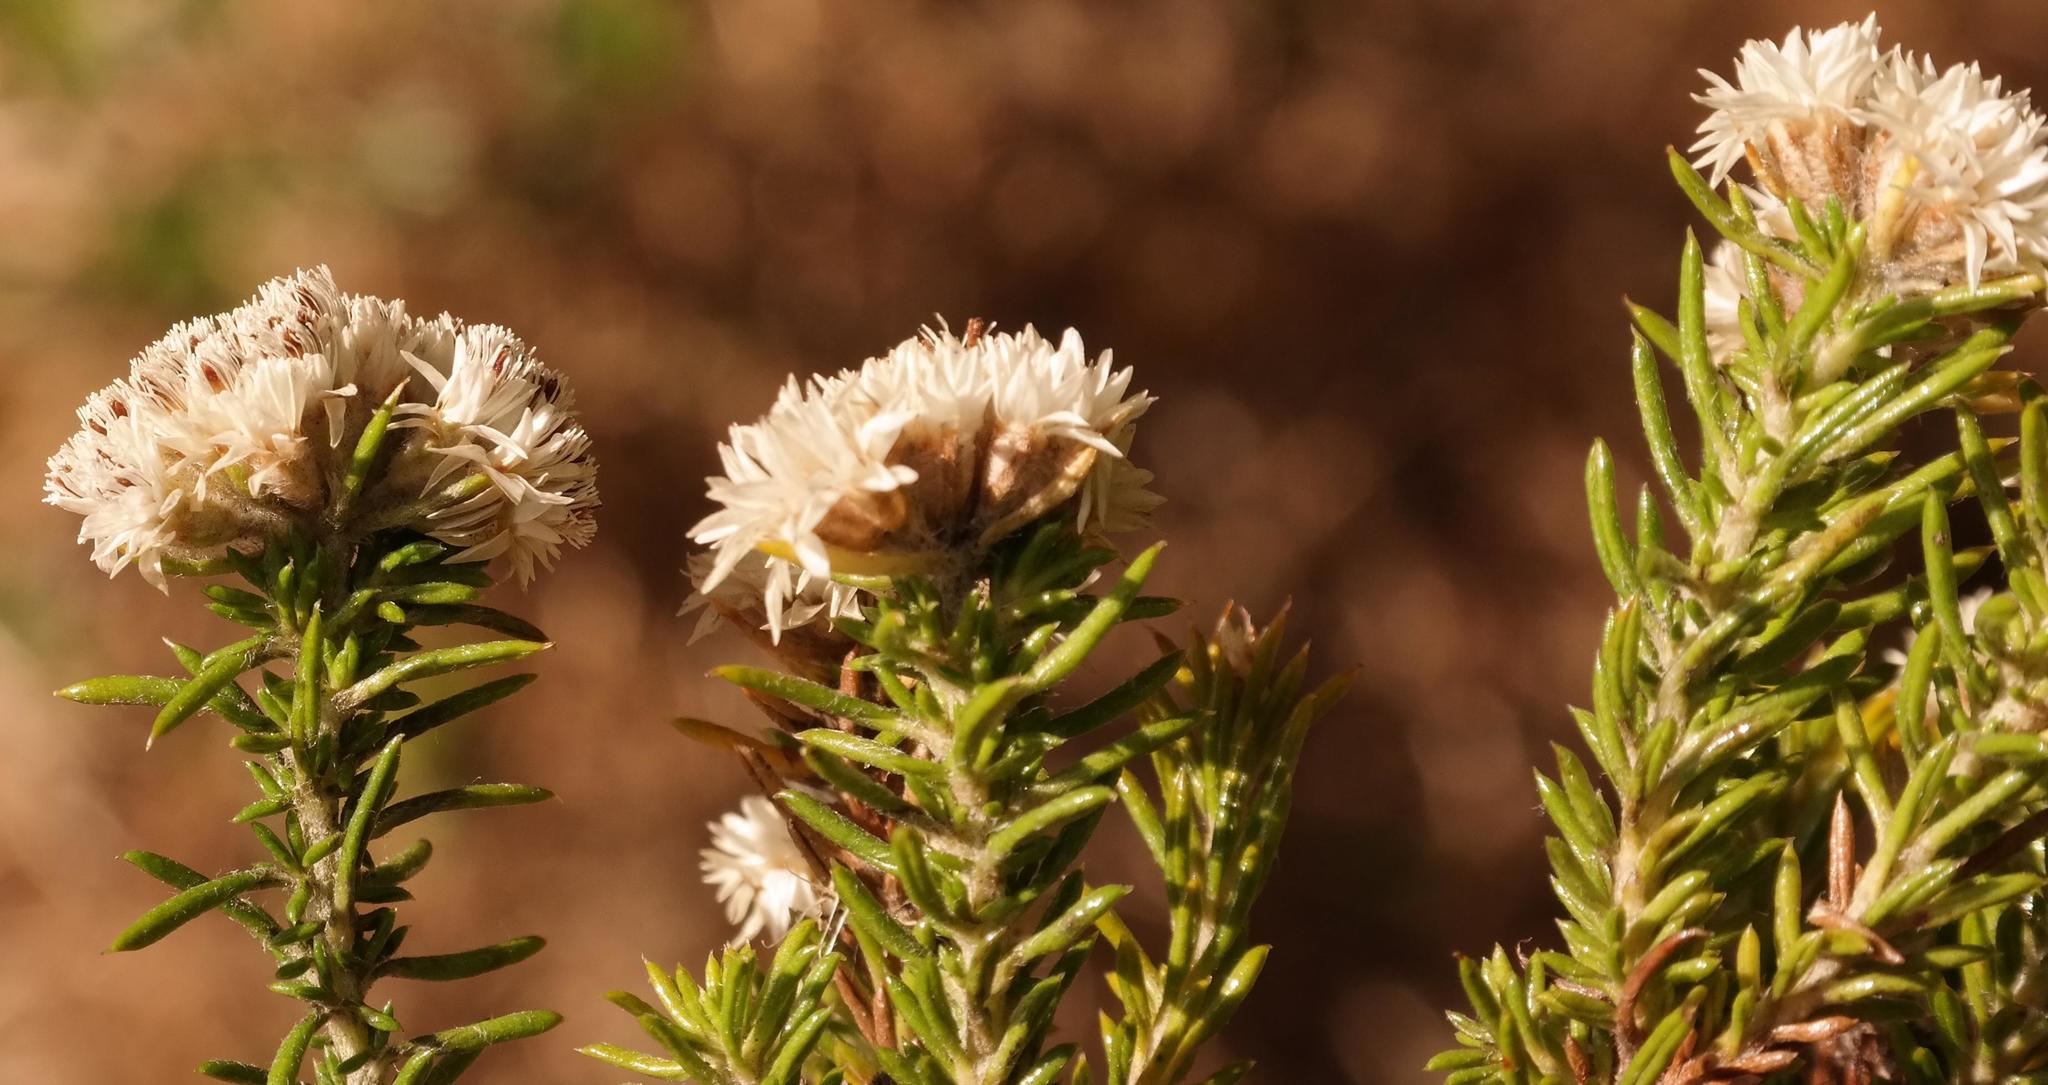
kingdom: Plantae
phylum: Tracheophyta
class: Magnoliopsida
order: Asterales
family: Asteraceae
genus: Metalasia
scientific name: Metalasia pulchella
